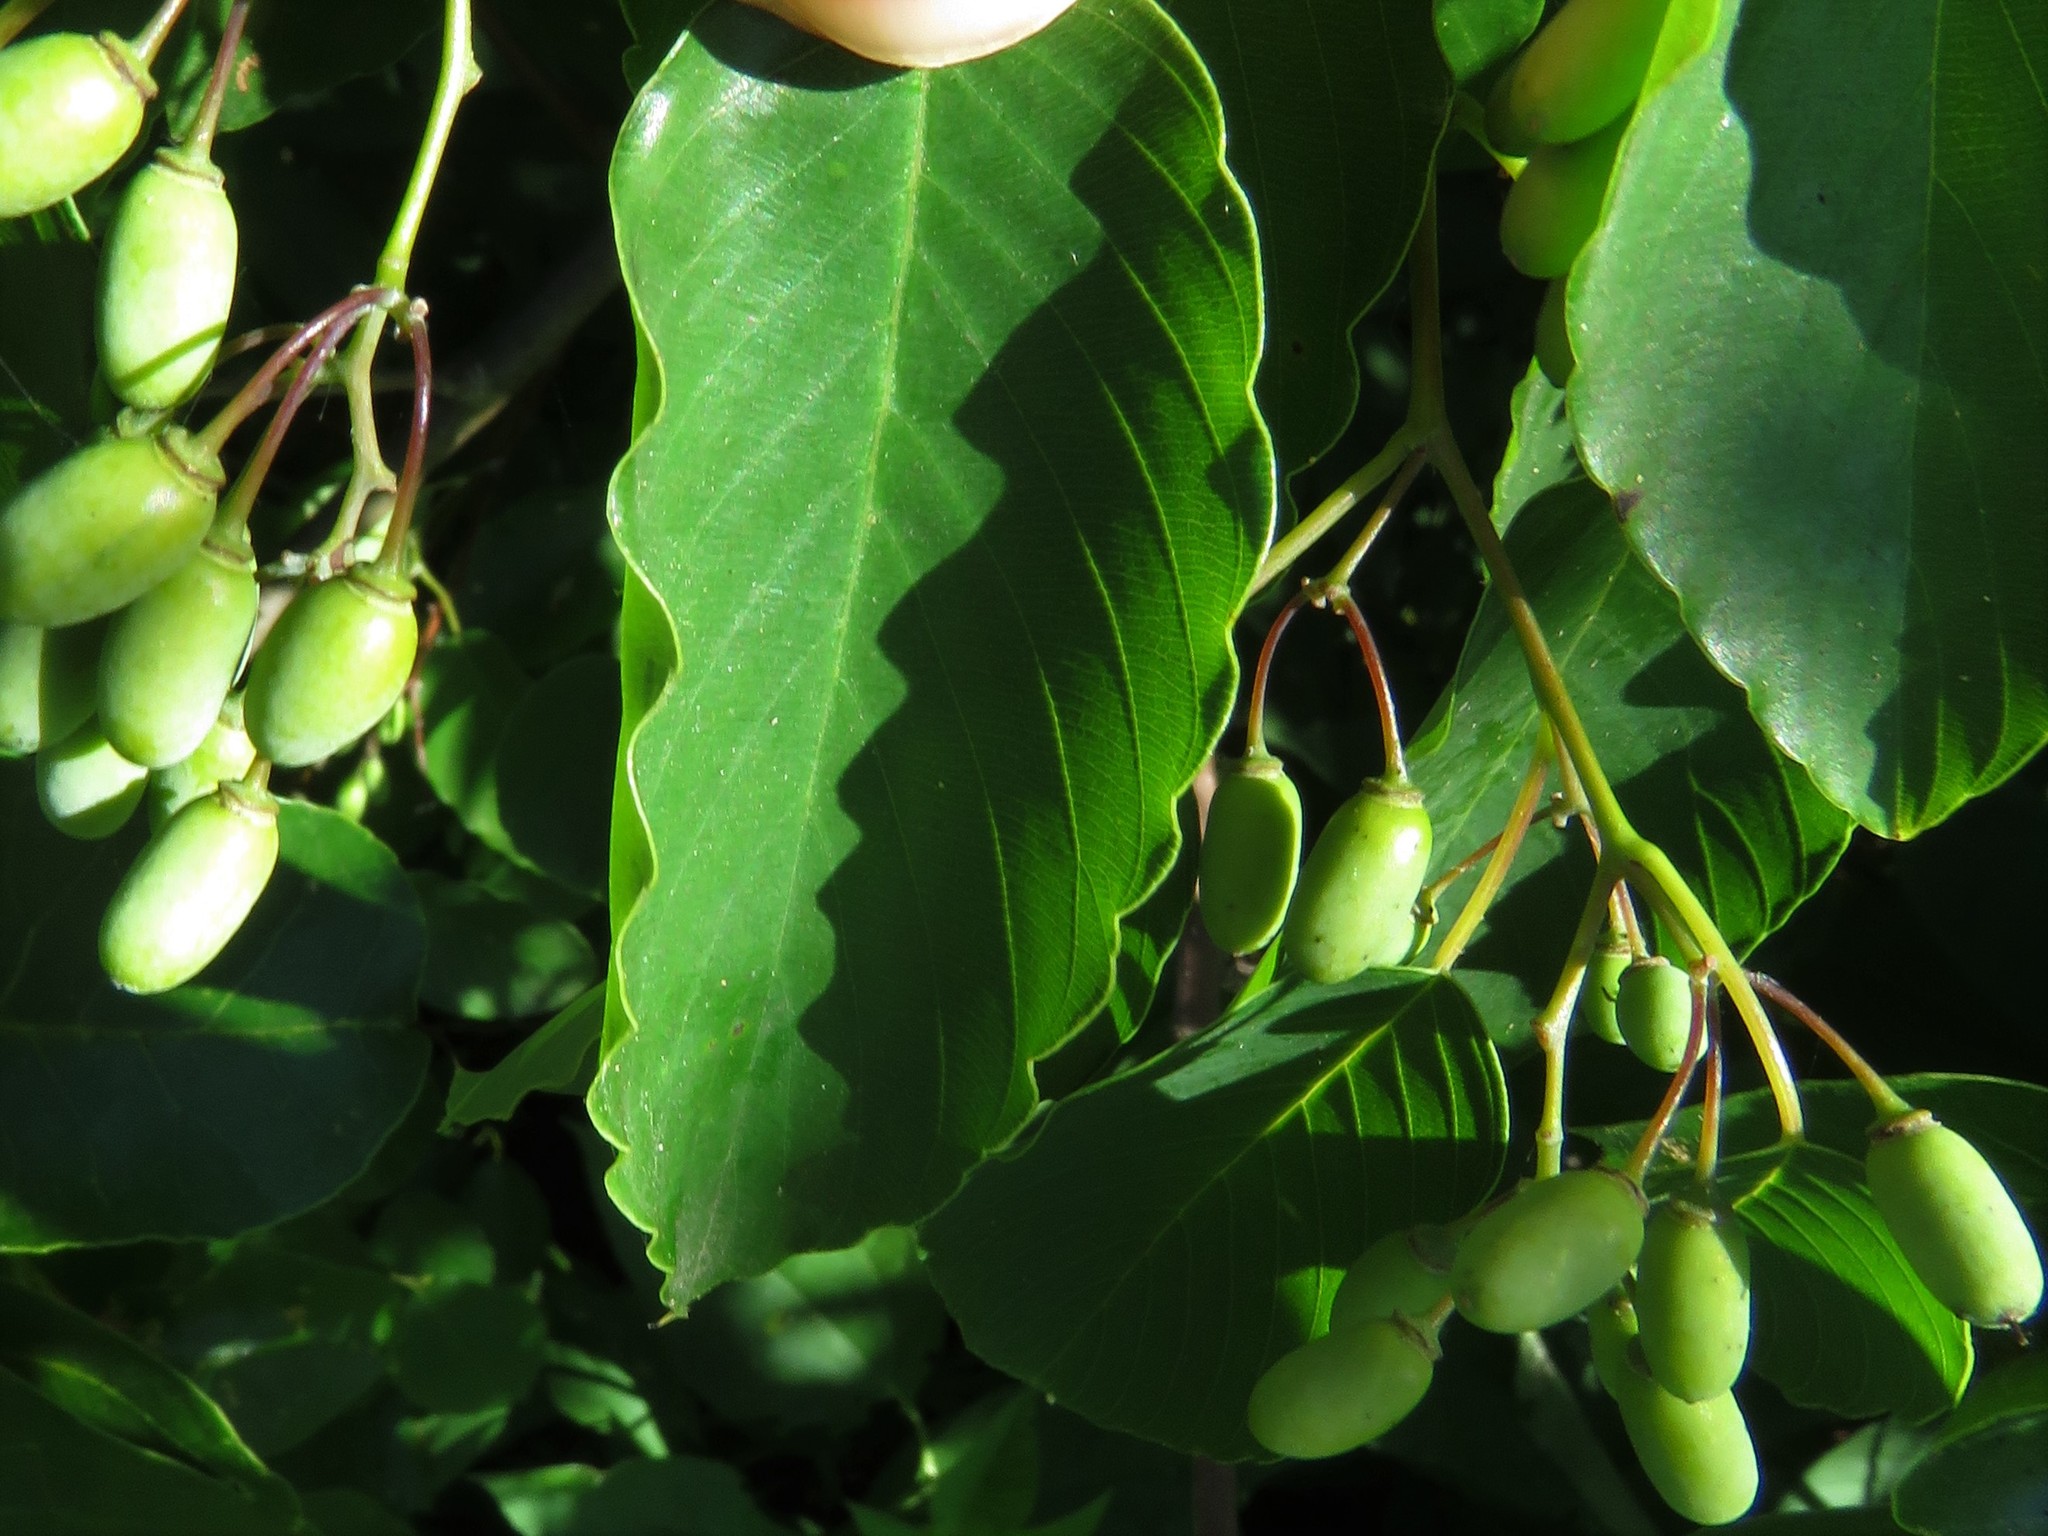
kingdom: Plantae
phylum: Tracheophyta
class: Magnoliopsida
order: Rosales
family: Rhamnaceae
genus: Berchemia
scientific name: Berchemia scandens
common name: Supplejack
